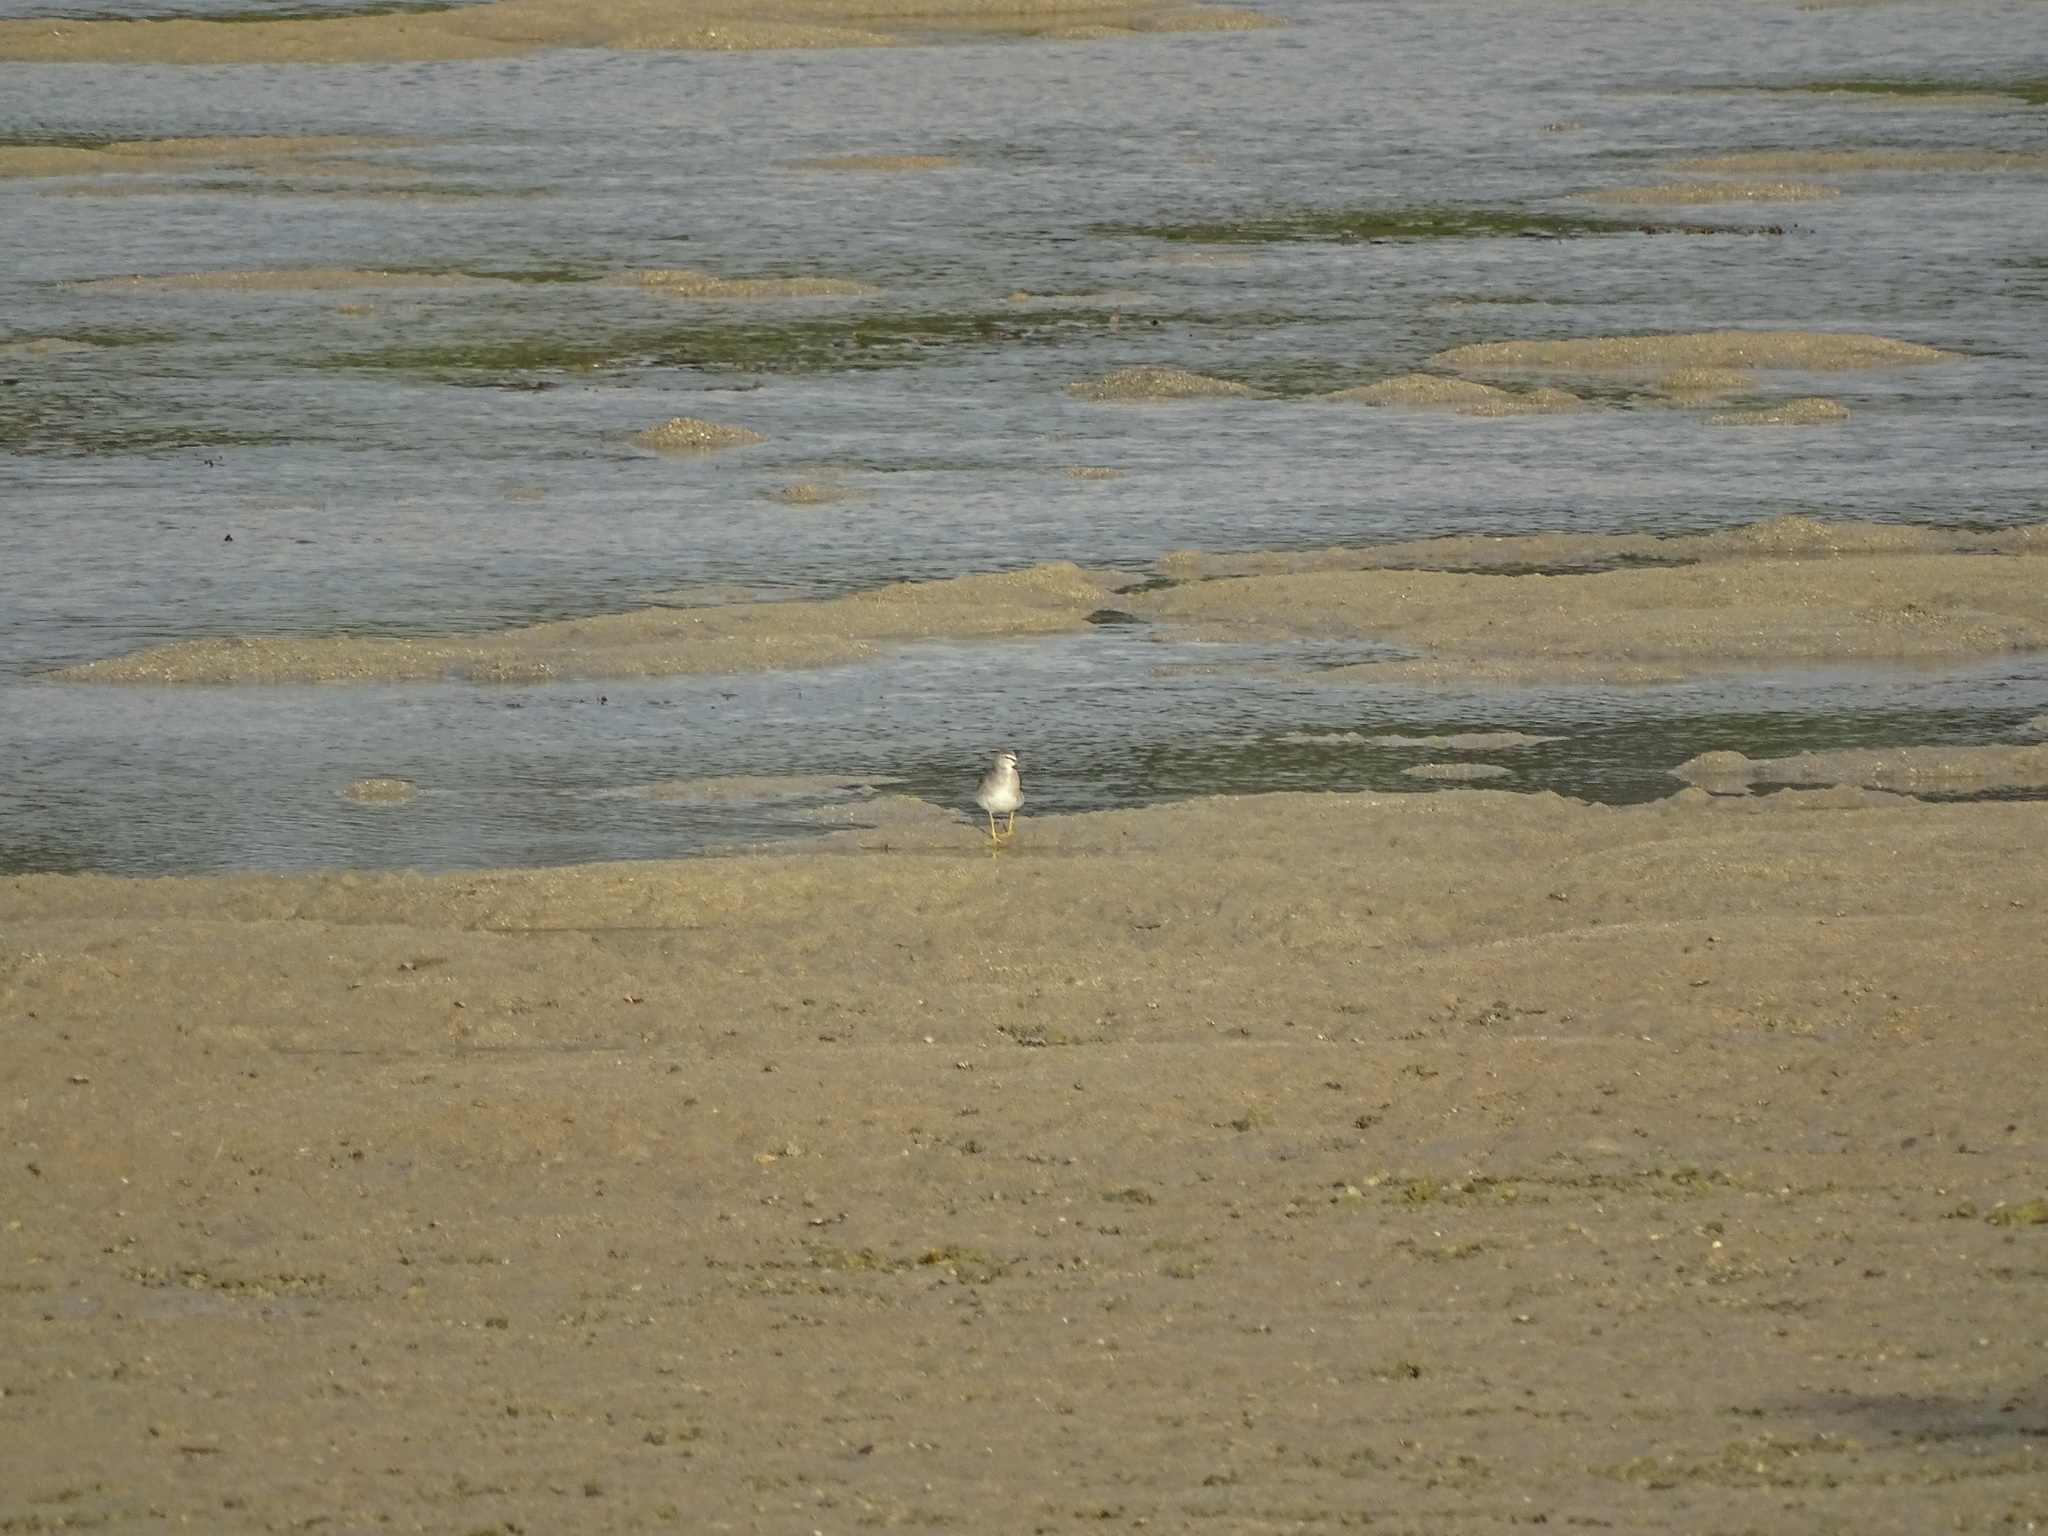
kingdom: Animalia
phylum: Chordata
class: Aves
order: Charadriiformes
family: Scolopacidae
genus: Tringa
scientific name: Tringa brevipes
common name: Grey-tailed tattler
